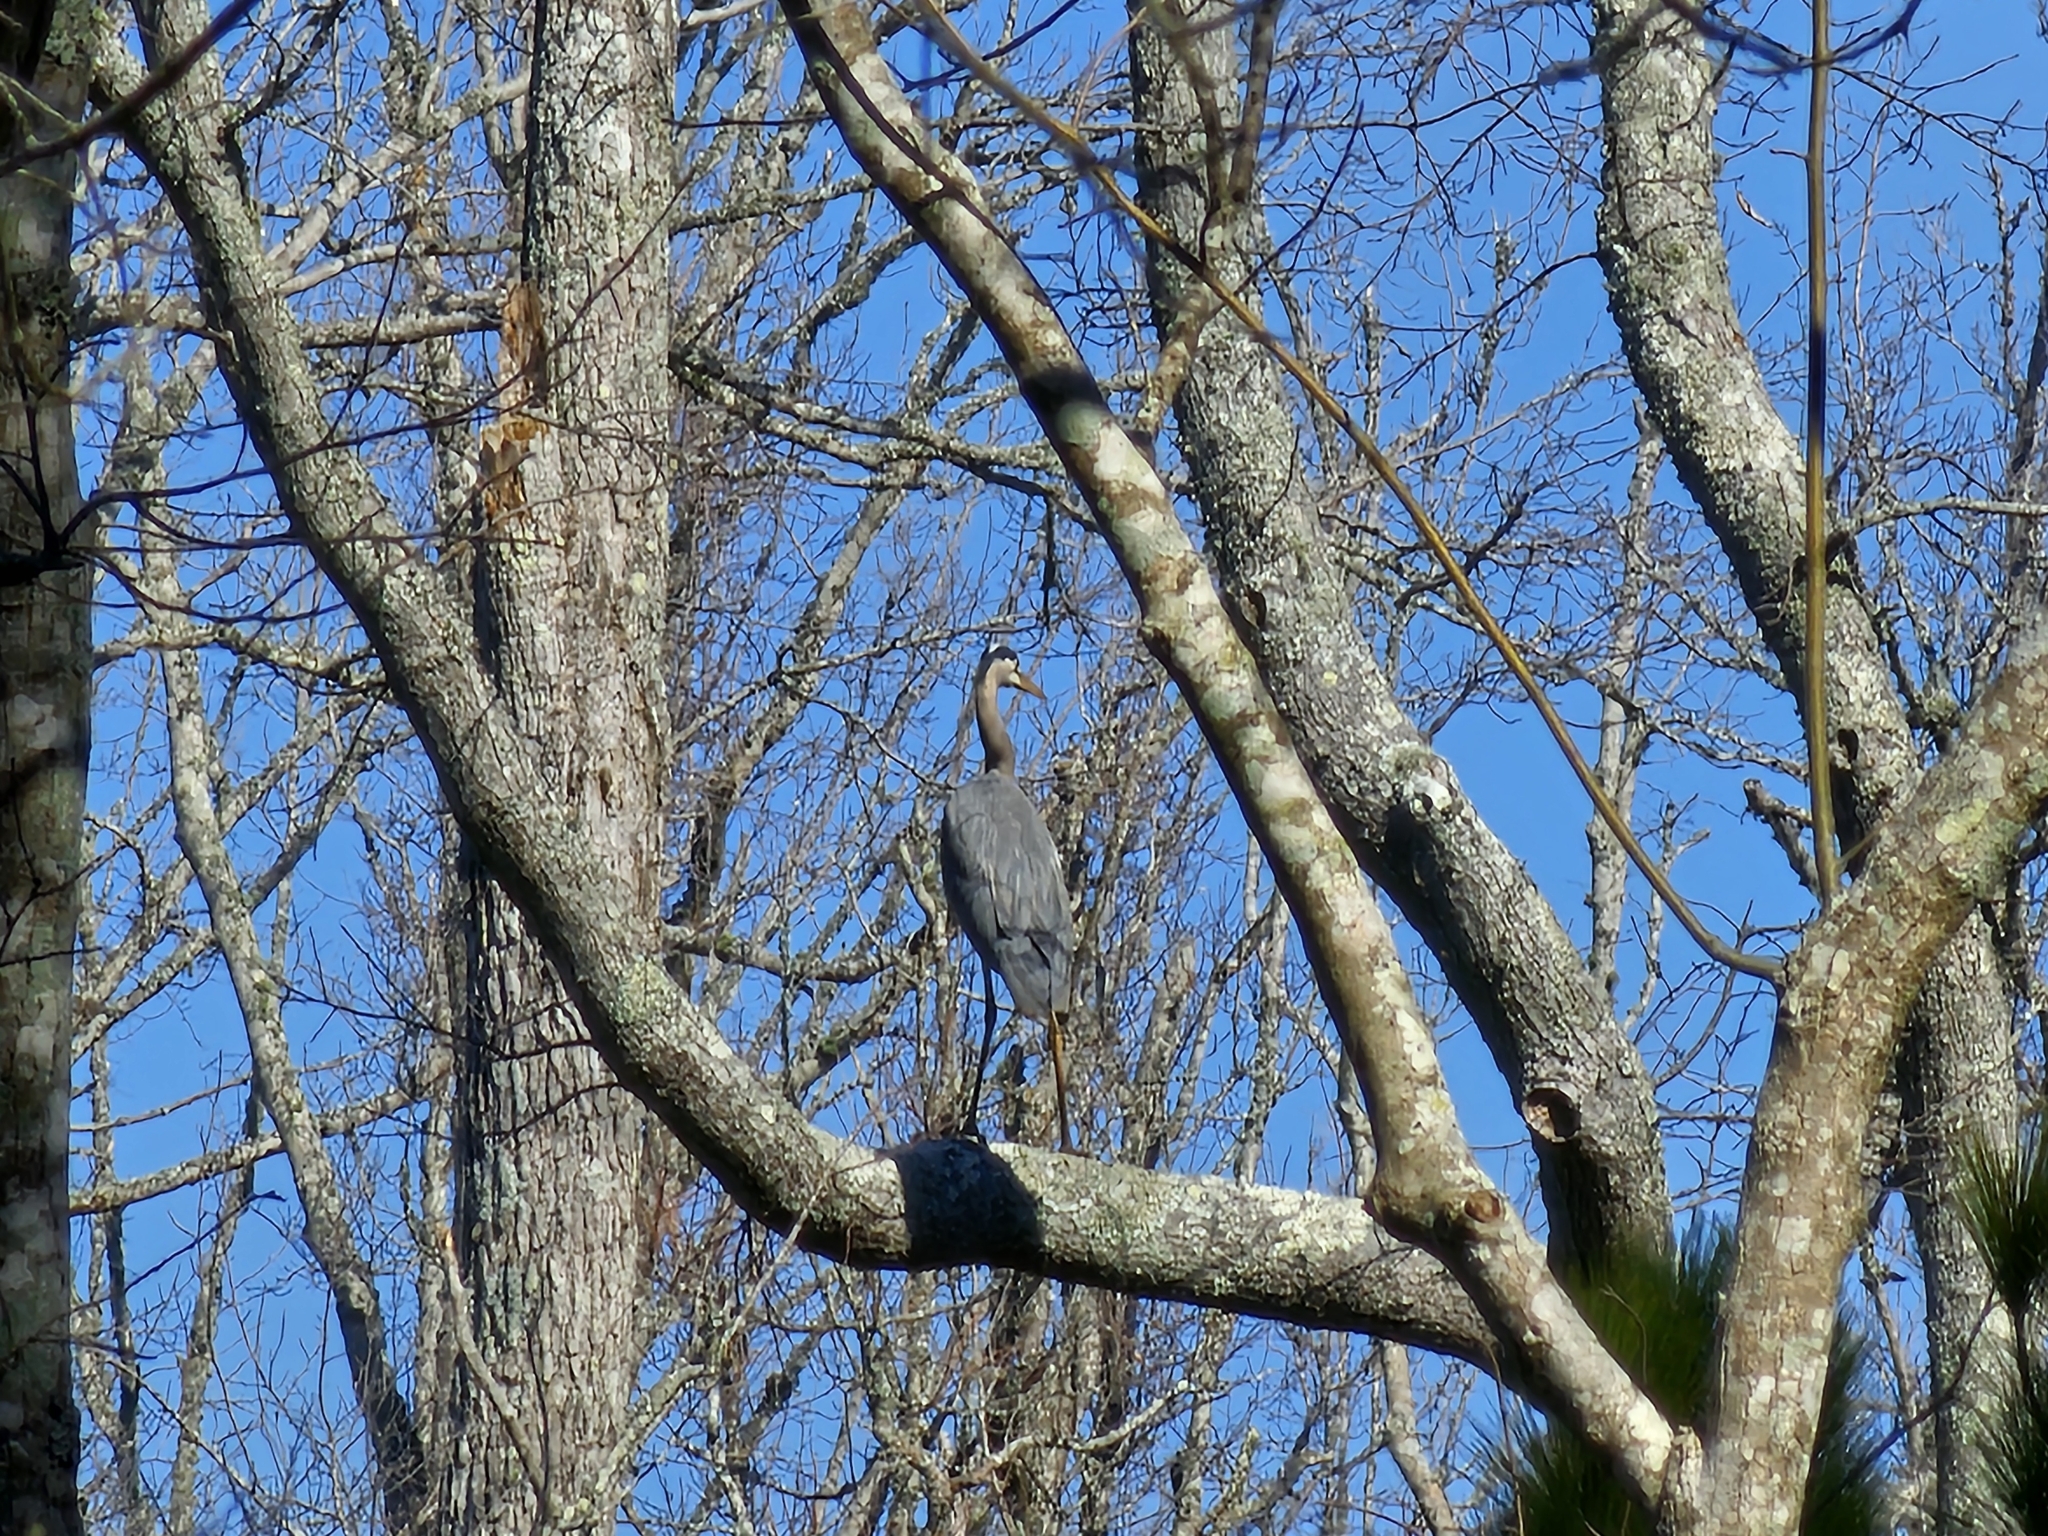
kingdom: Animalia
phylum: Chordata
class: Aves
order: Pelecaniformes
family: Ardeidae
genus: Ardea
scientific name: Ardea herodias
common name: Great blue heron
